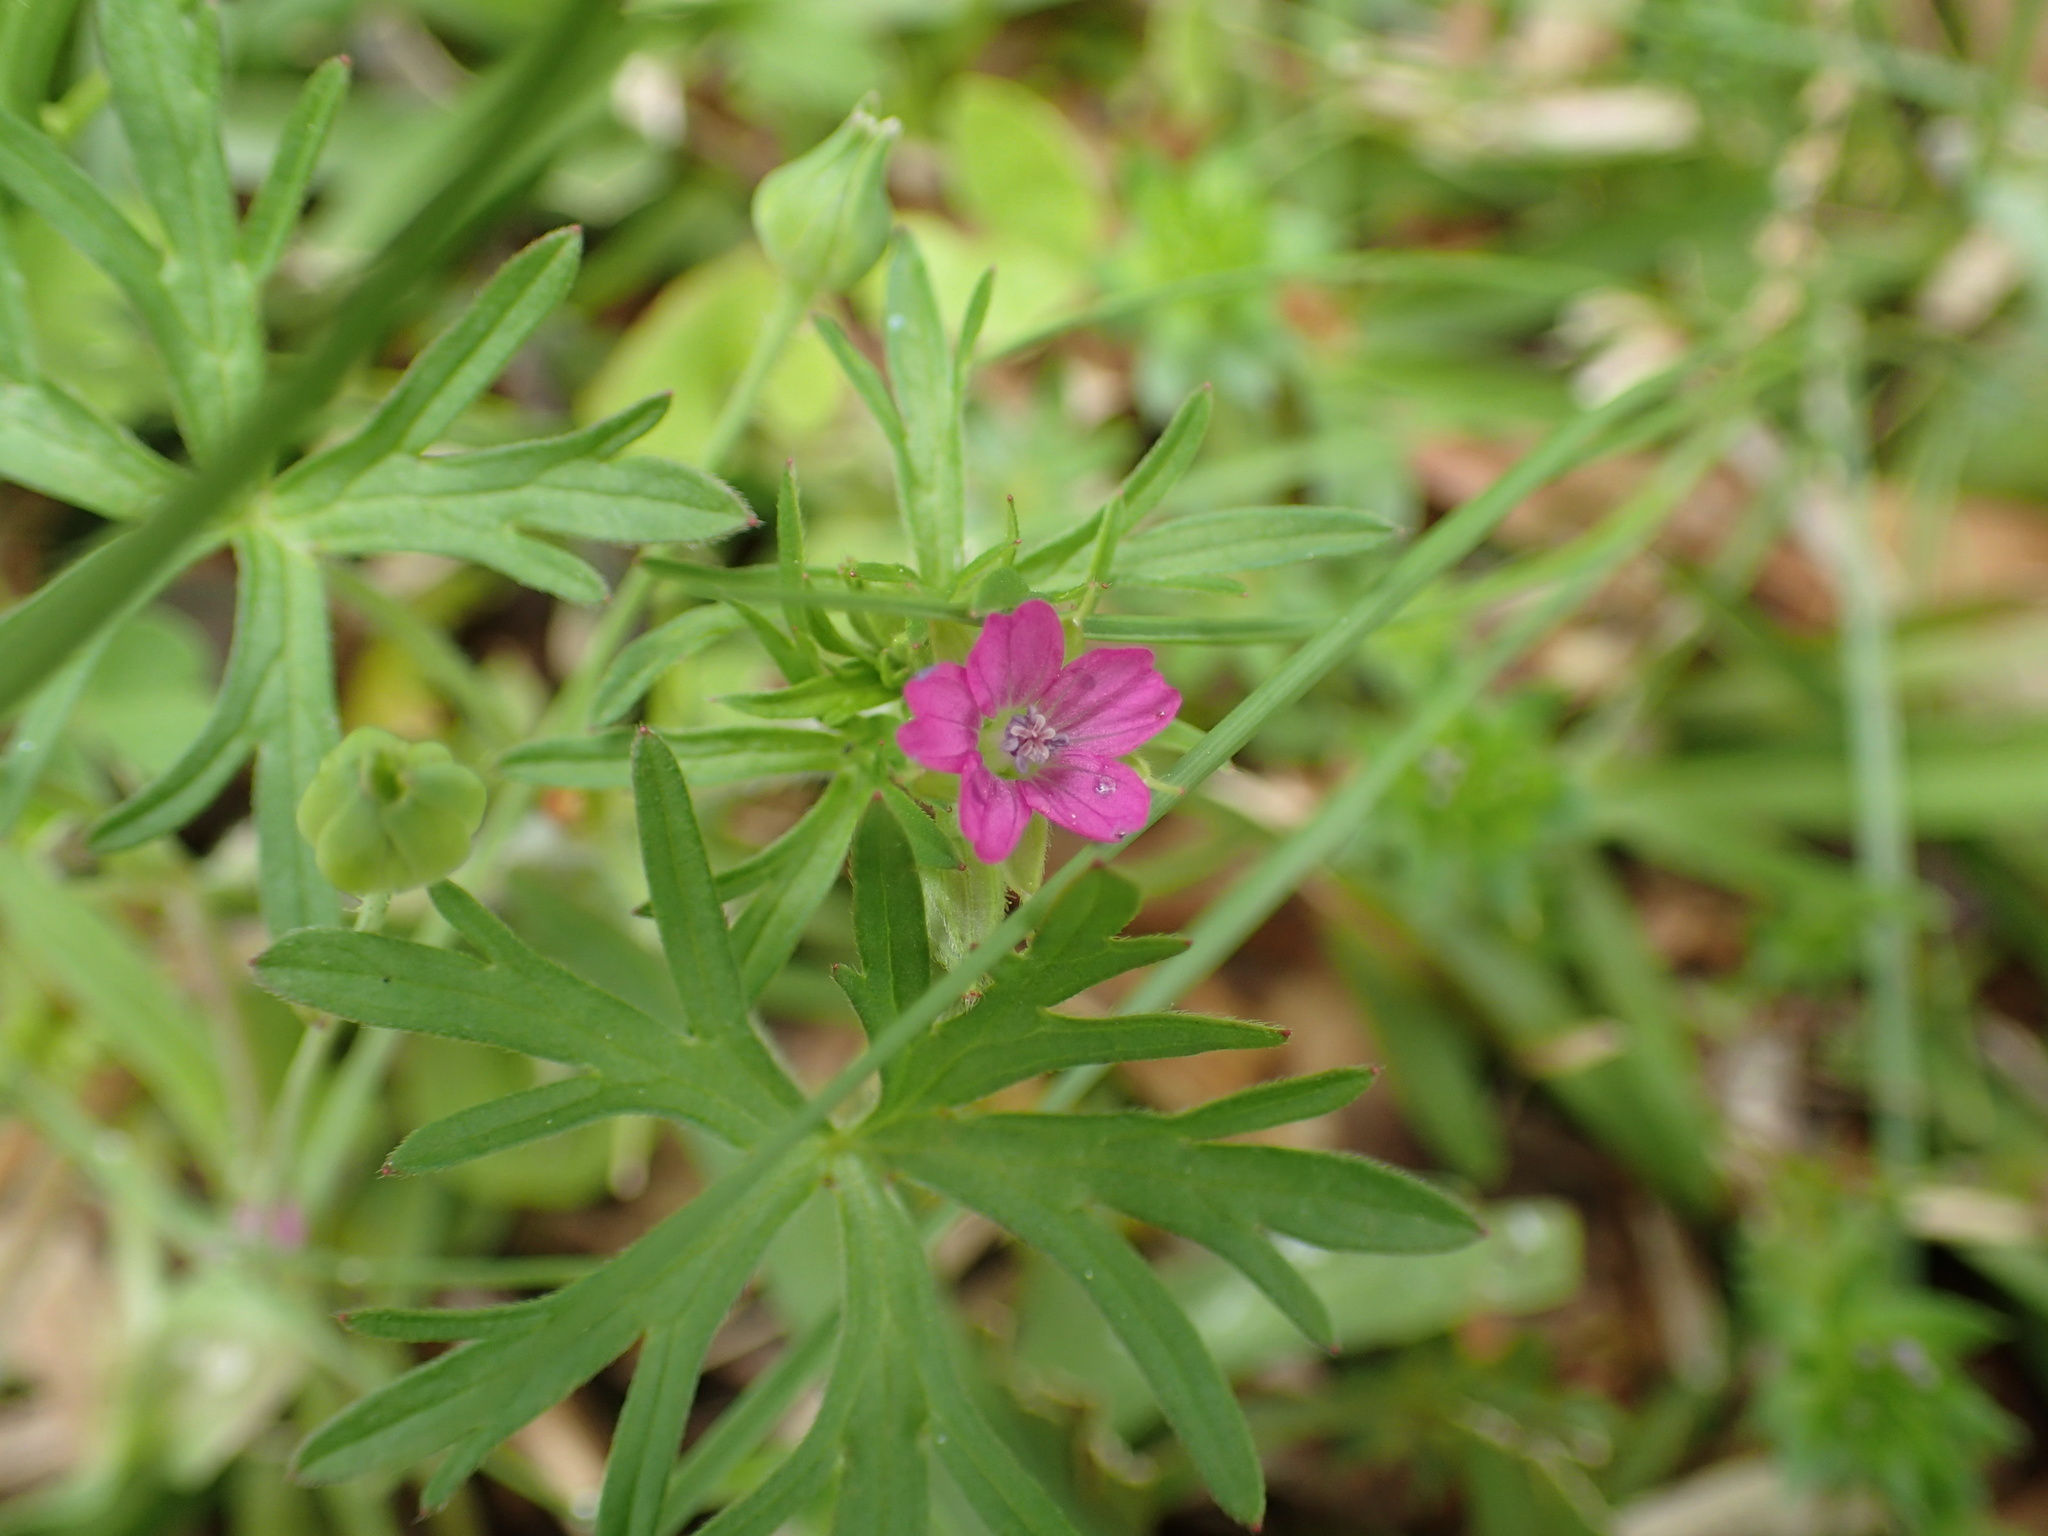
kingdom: Plantae
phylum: Tracheophyta
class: Magnoliopsida
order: Geraniales
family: Geraniaceae
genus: Geranium
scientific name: Geranium dissectum
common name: Cut-leaved crane's-bill
